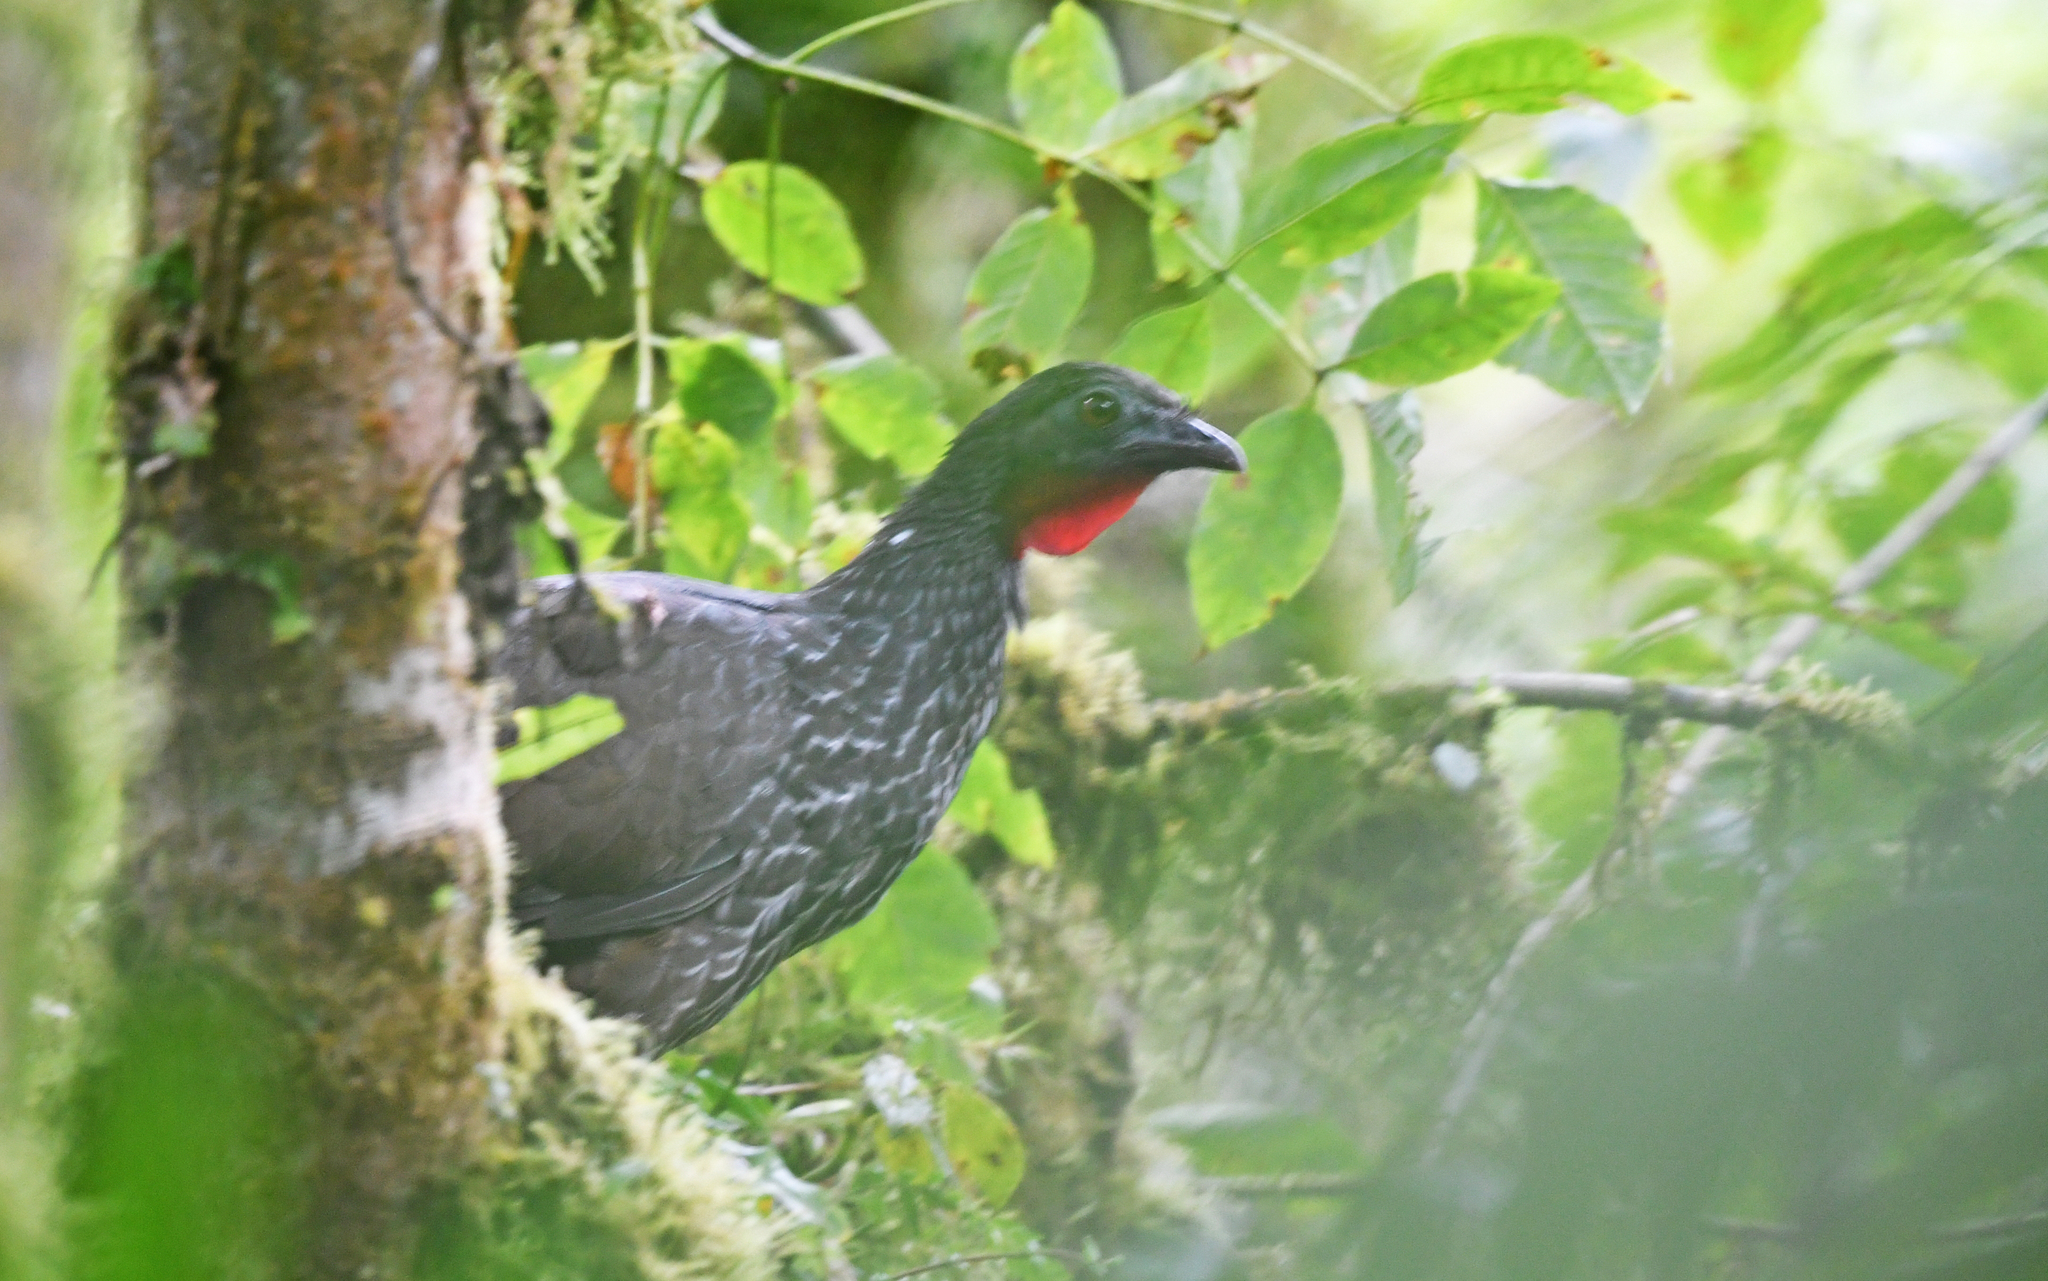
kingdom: Animalia
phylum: Chordata
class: Aves
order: Galliformes
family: Cracidae
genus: Penelope
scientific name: Penelope perspicax
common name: Cauca guan
